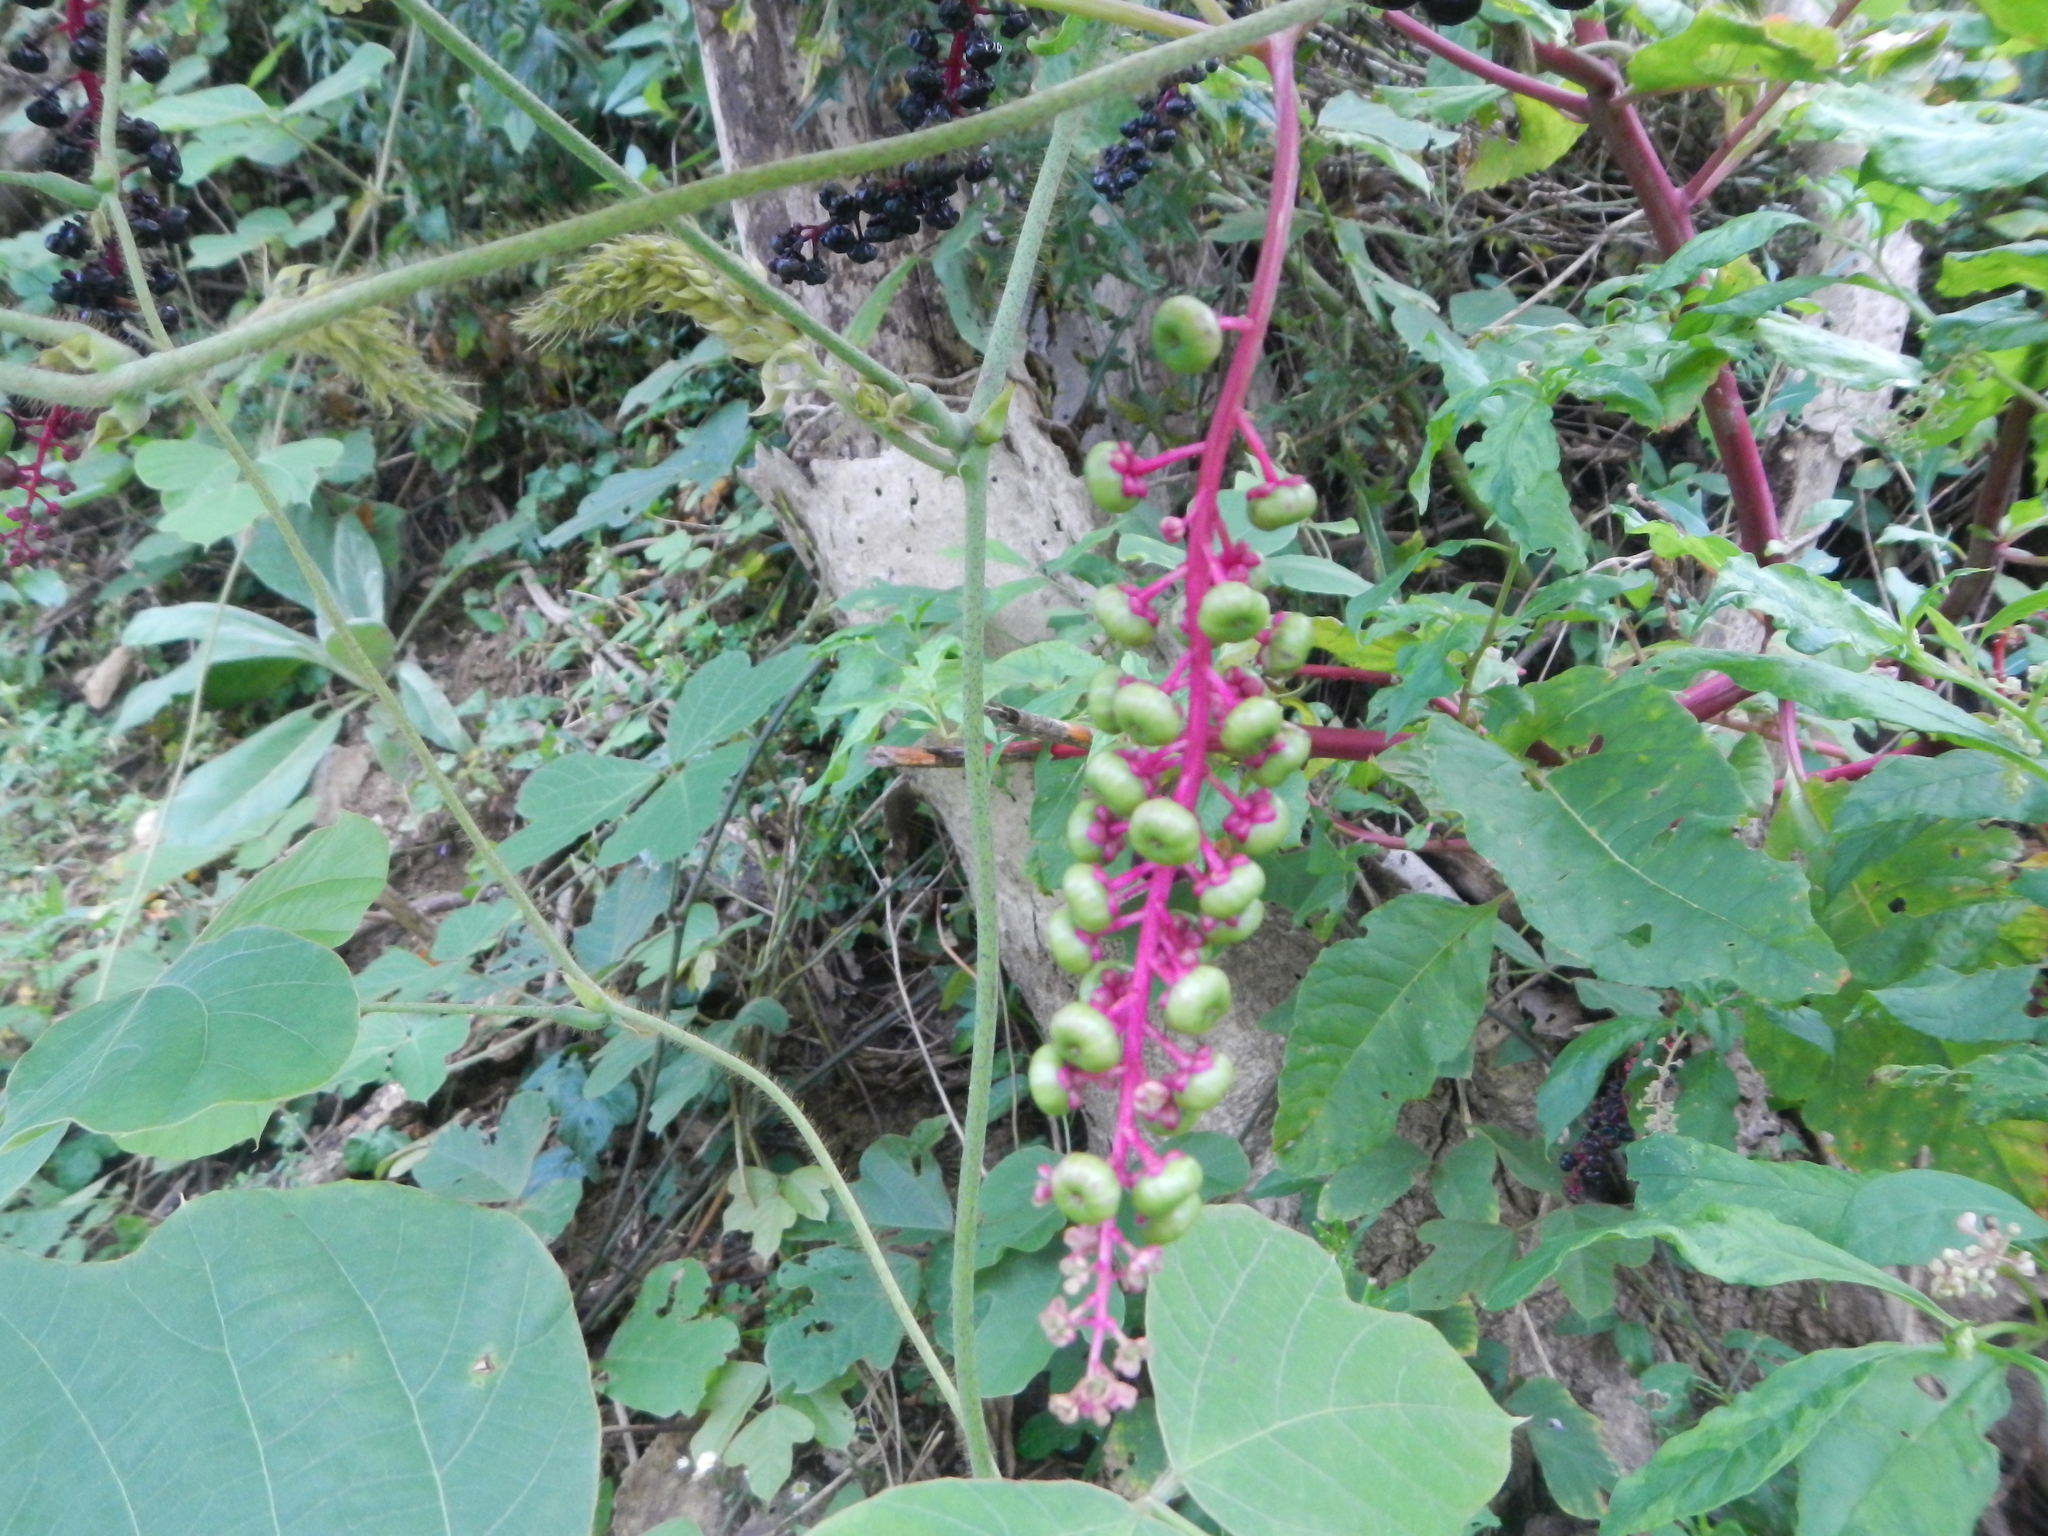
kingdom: Plantae
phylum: Tracheophyta
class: Magnoliopsida
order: Caryophyllales
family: Phytolaccaceae
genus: Phytolacca
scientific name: Phytolacca americana
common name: American pokeweed
